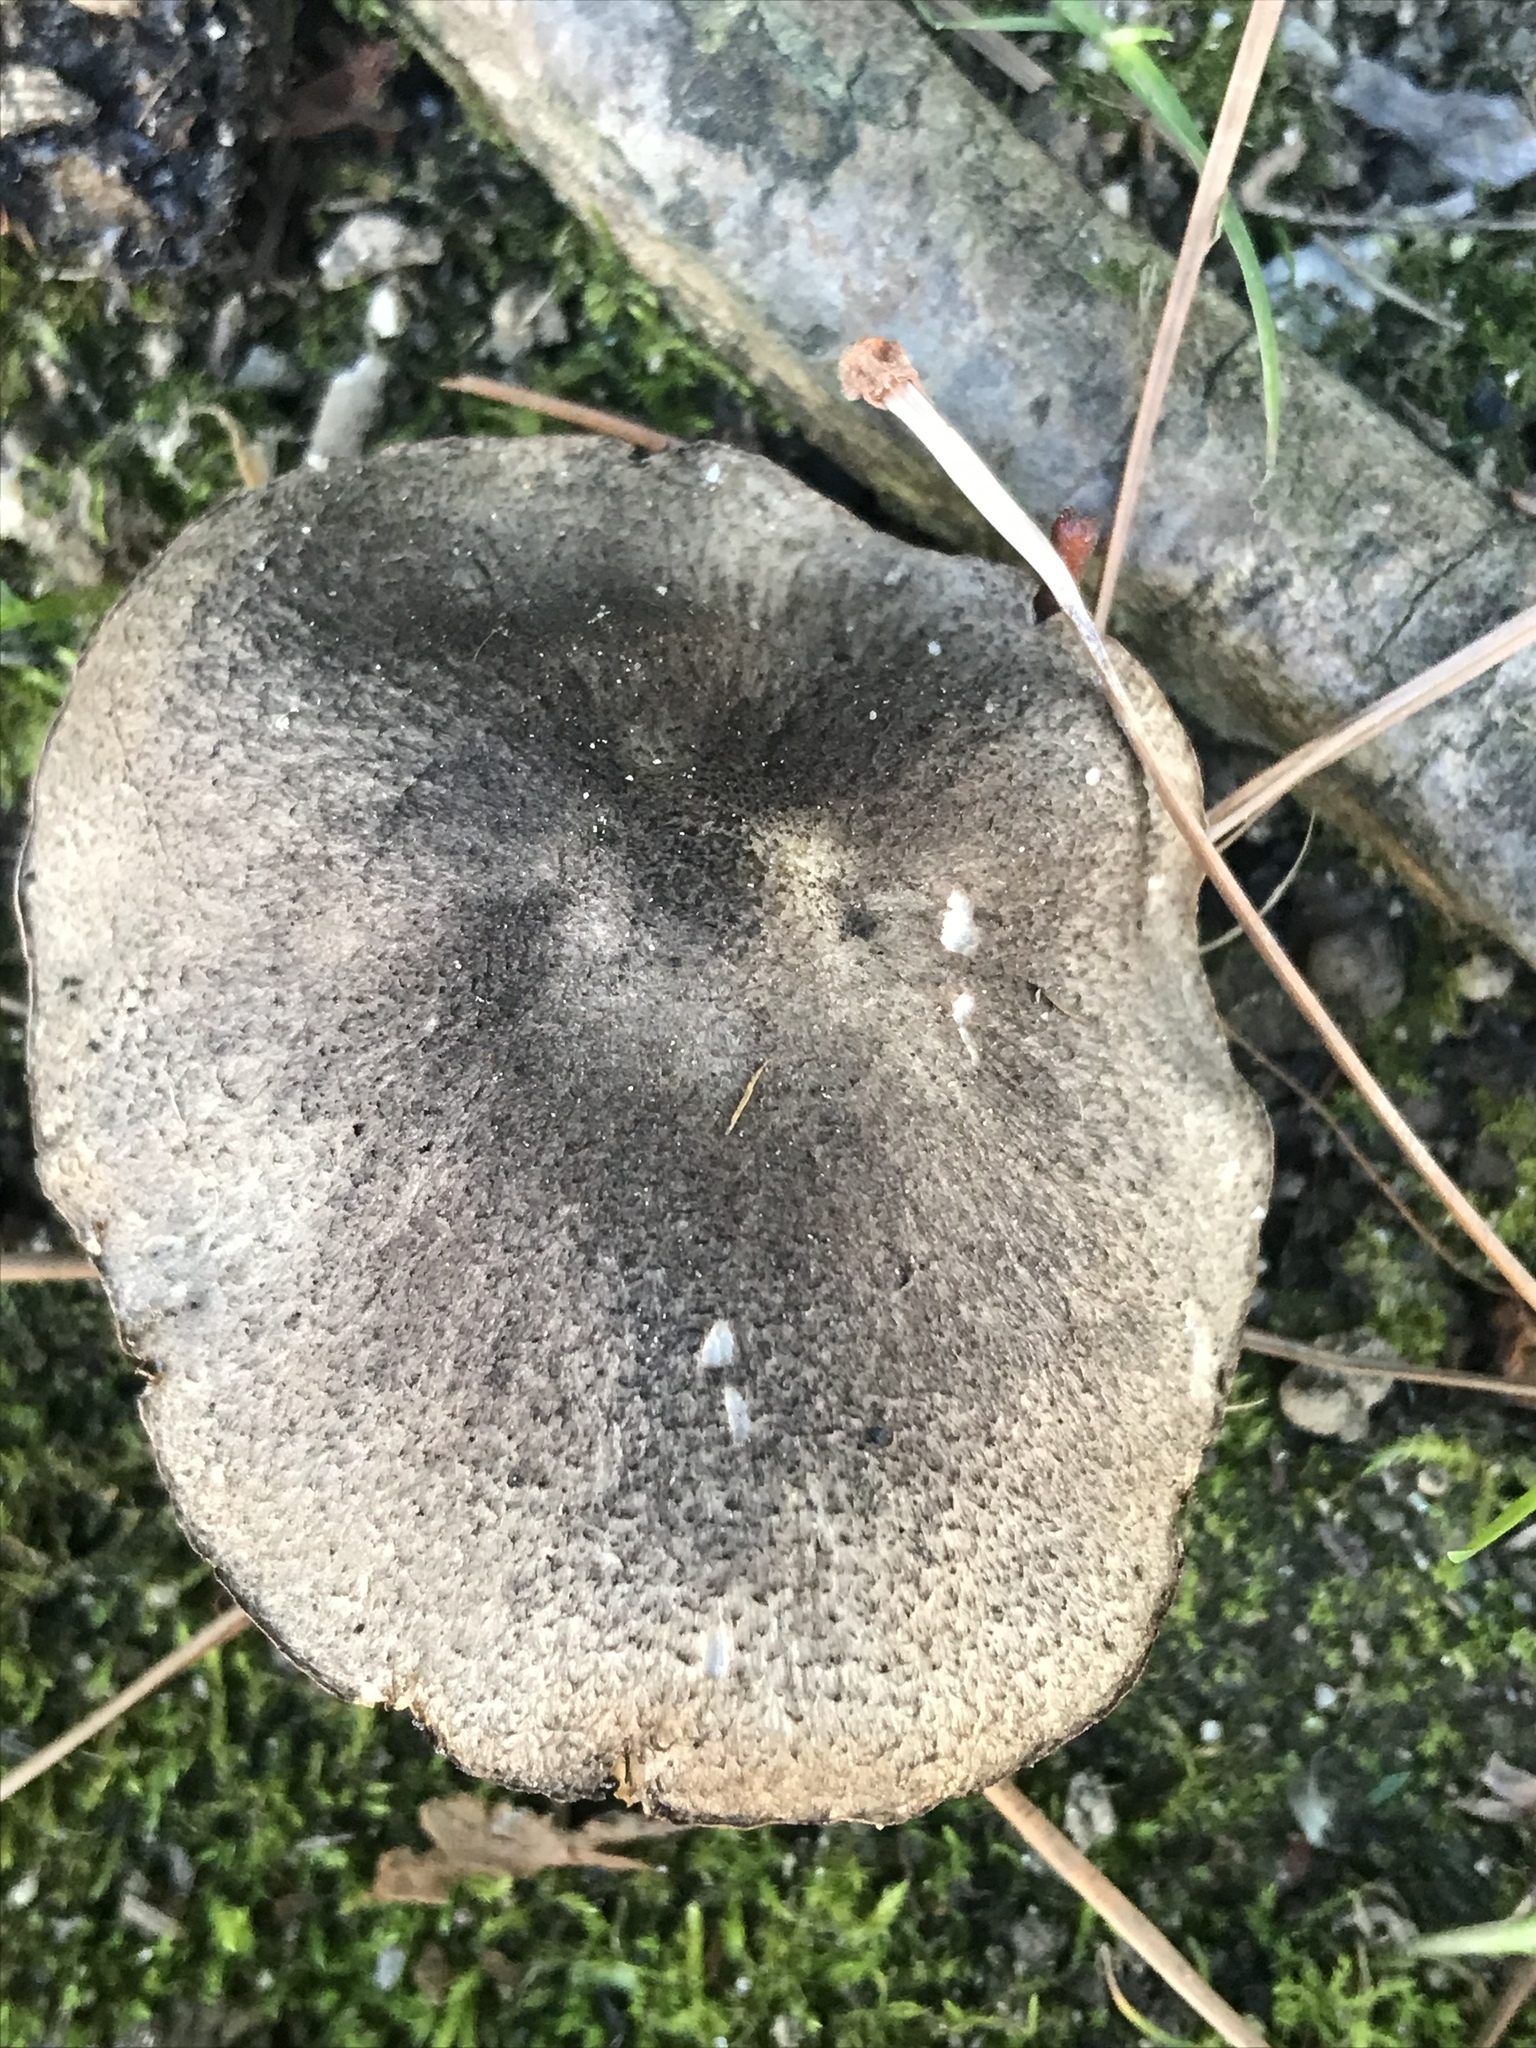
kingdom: Fungi
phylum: Basidiomycota
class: Agaricomycetes
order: Agaricales
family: Tricholomataceae
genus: Tricholoma
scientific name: Tricholoma pardinum
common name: Leopard knight
